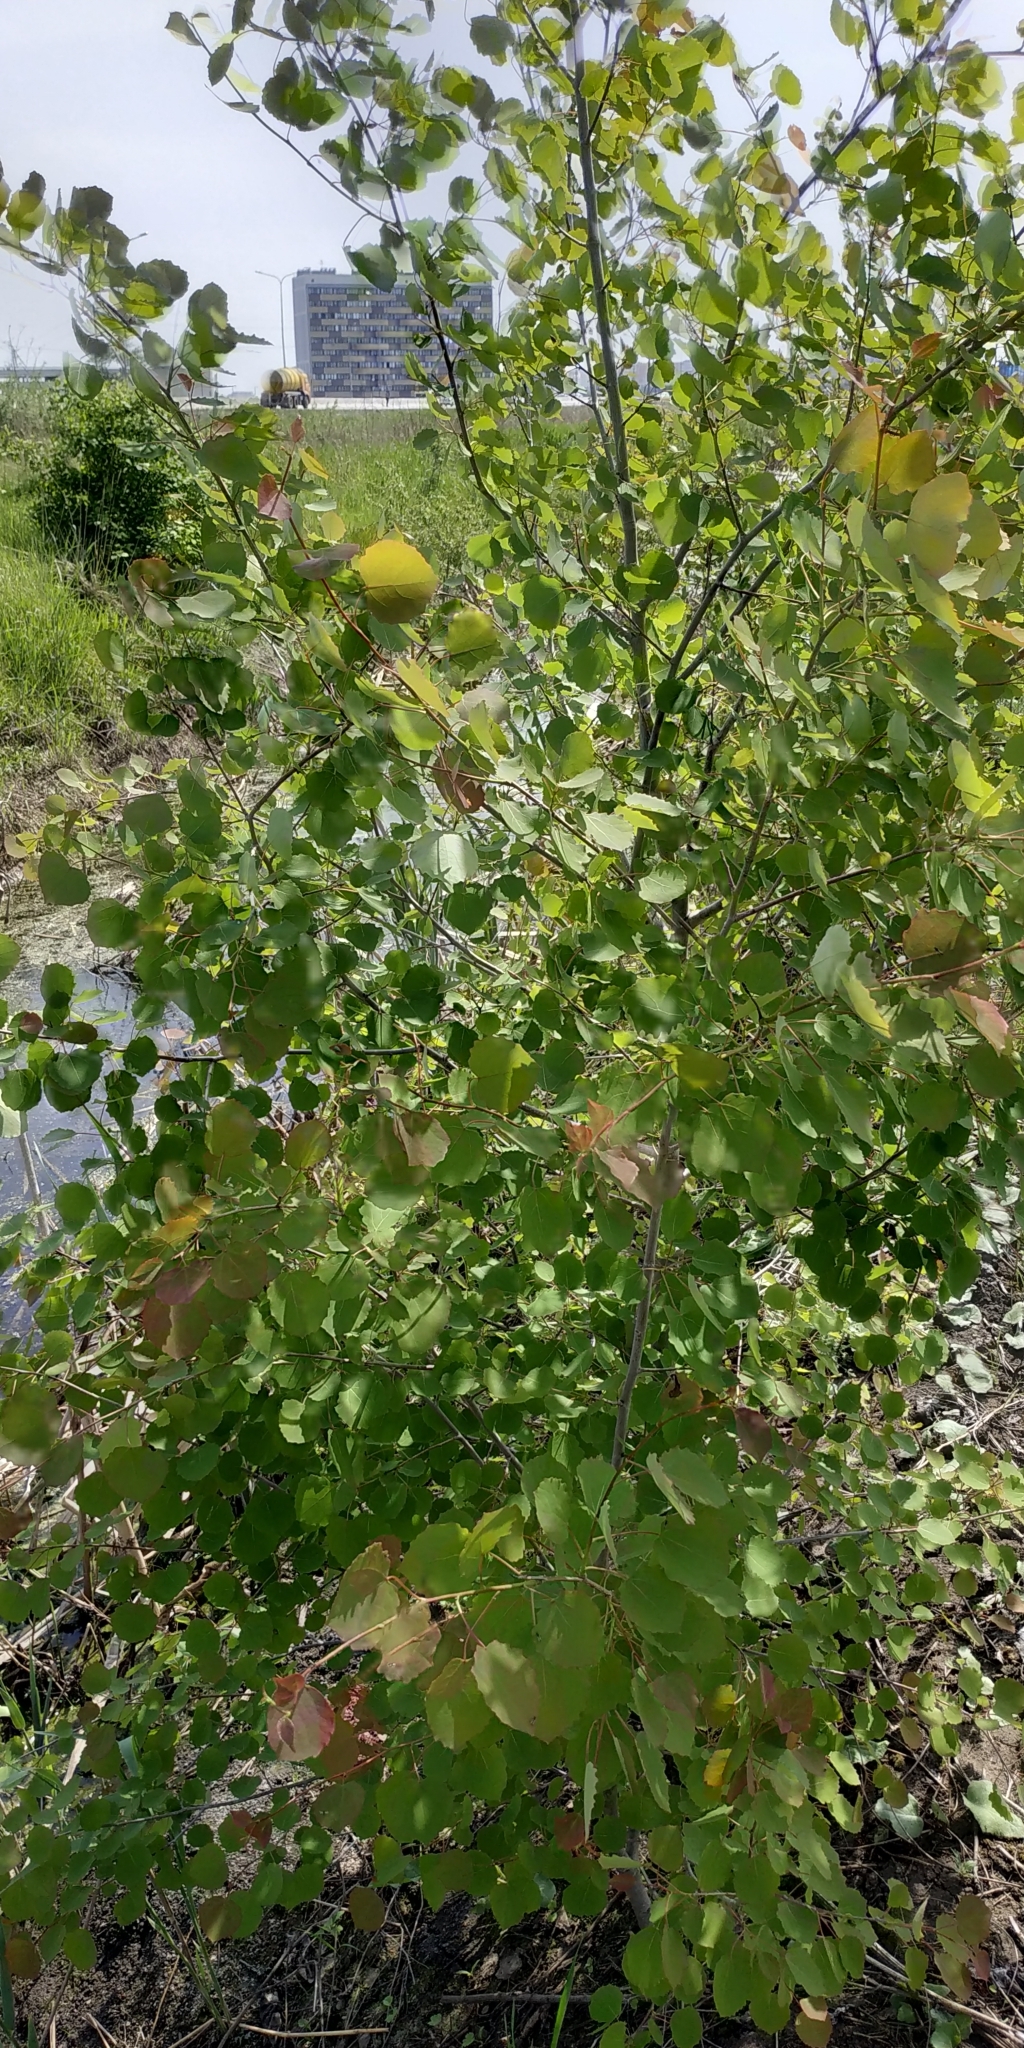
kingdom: Plantae
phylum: Tracheophyta
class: Magnoliopsida
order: Malpighiales
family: Salicaceae
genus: Populus
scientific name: Populus tremula
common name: European aspen
